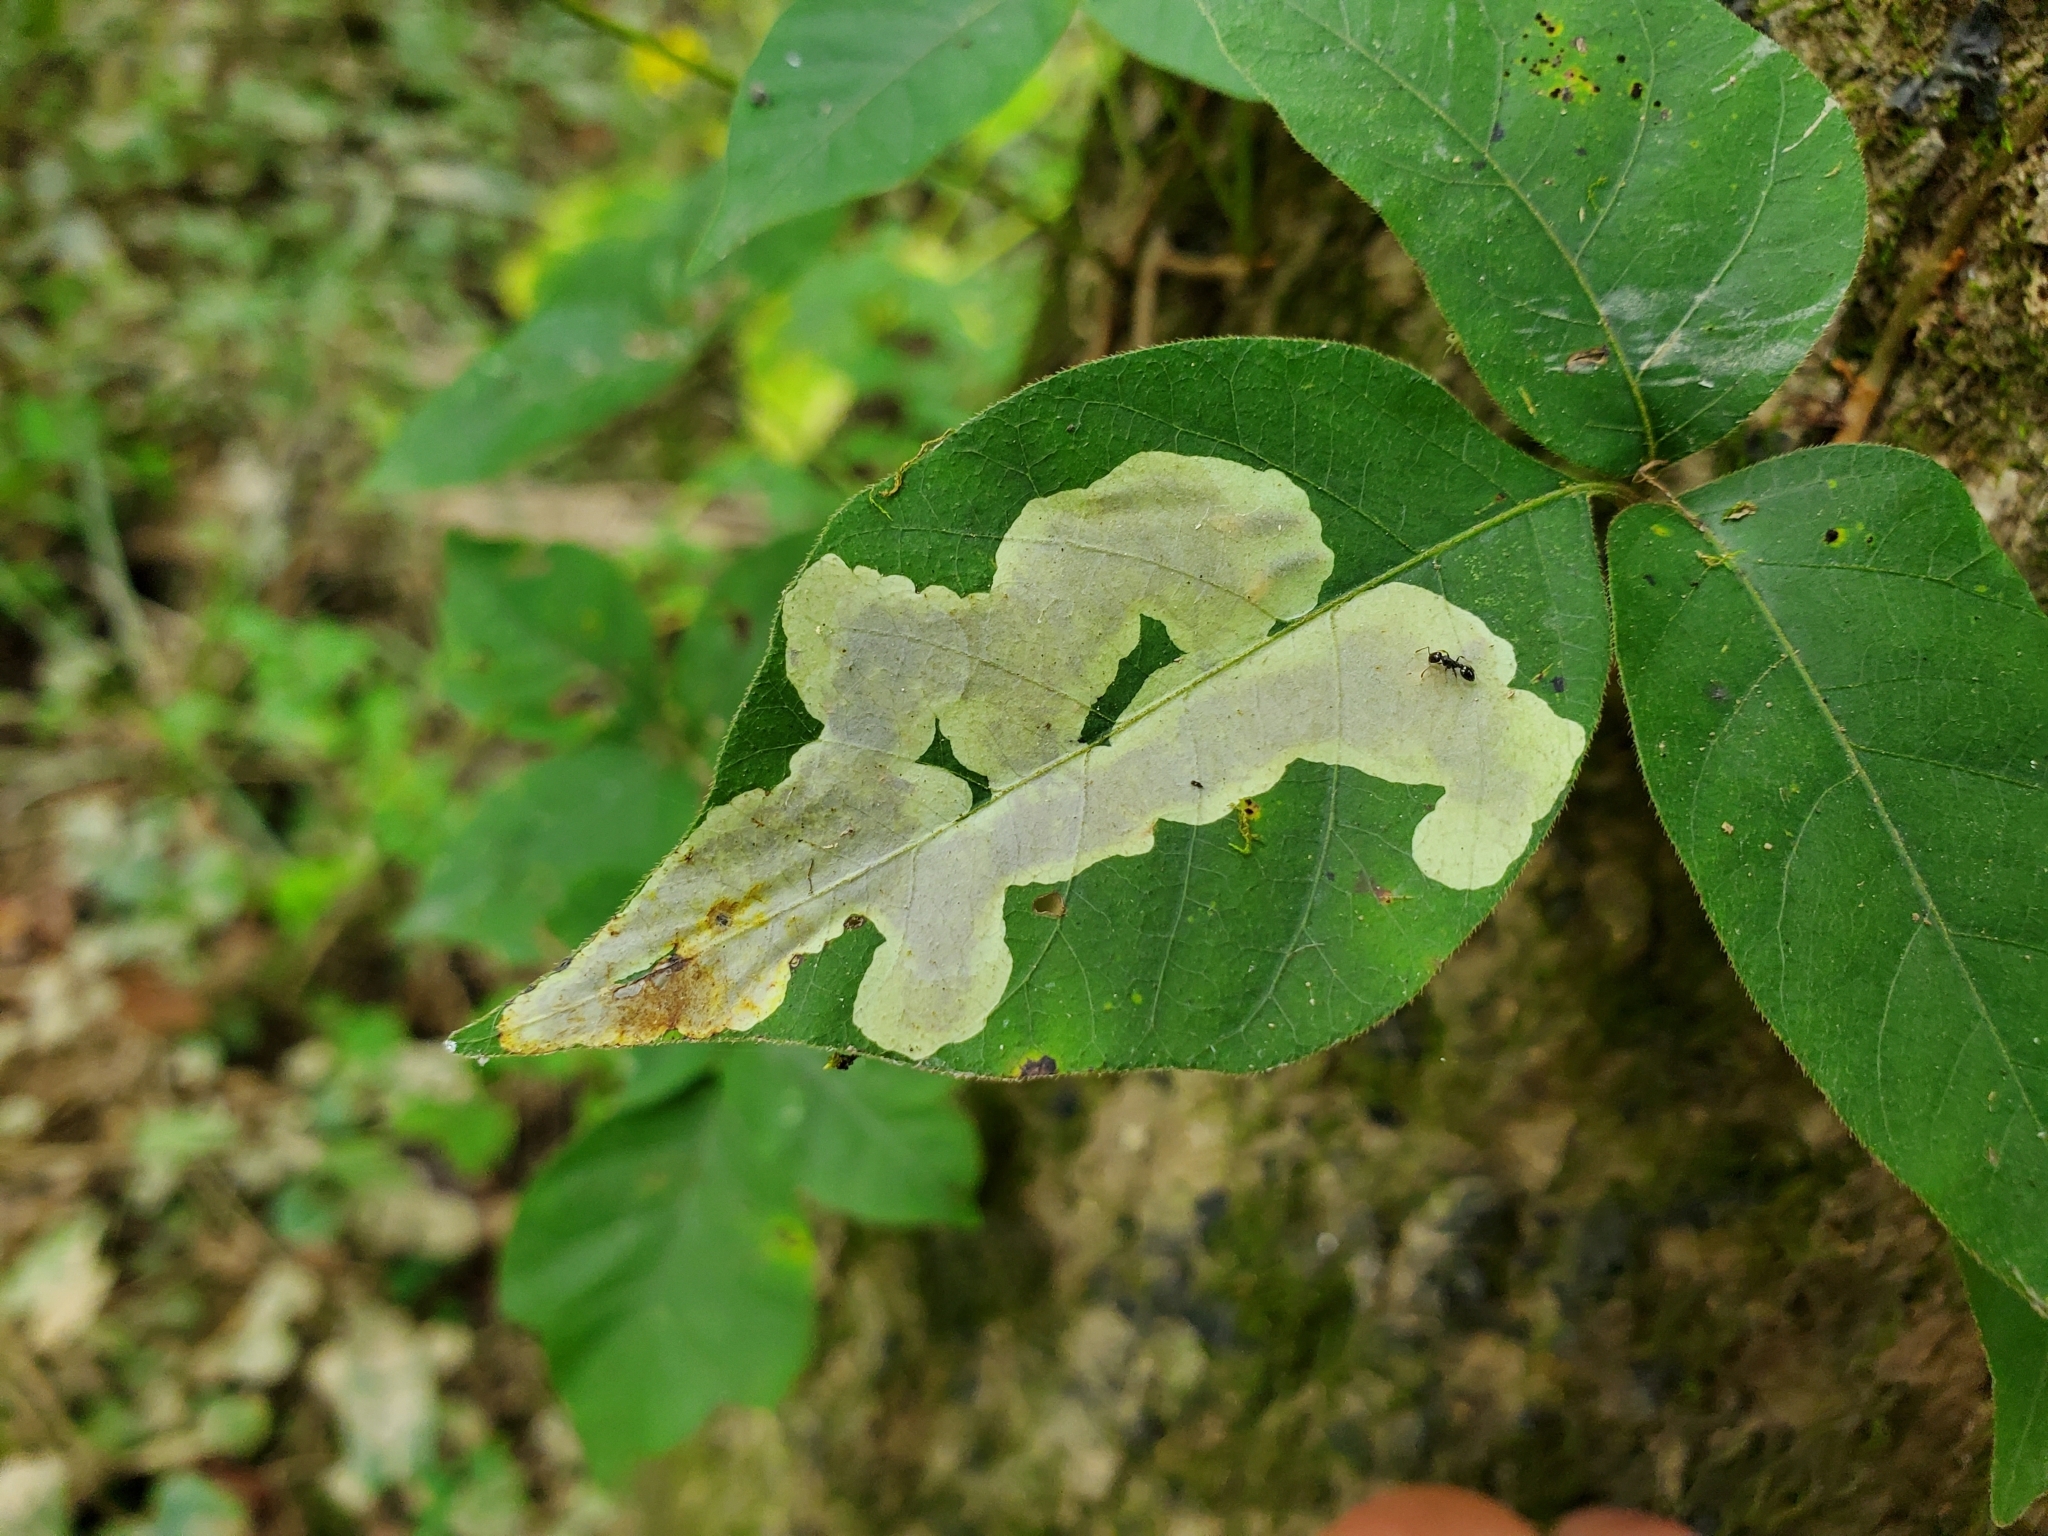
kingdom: Animalia
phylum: Arthropoda
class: Insecta
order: Lepidoptera
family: Gracillariidae
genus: Cameraria
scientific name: Cameraria guttifinitella
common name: Poison ivy leaf-miner moth
